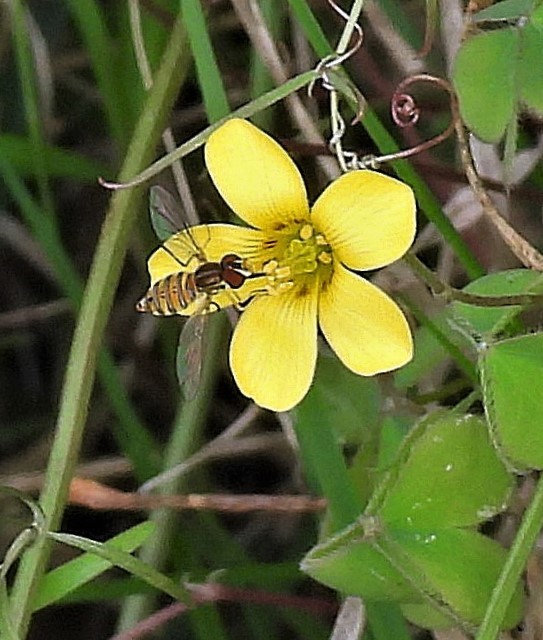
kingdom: Animalia
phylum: Arthropoda
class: Insecta
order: Diptera
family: Syrphidae
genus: Toxomerus
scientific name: Toxomerus
